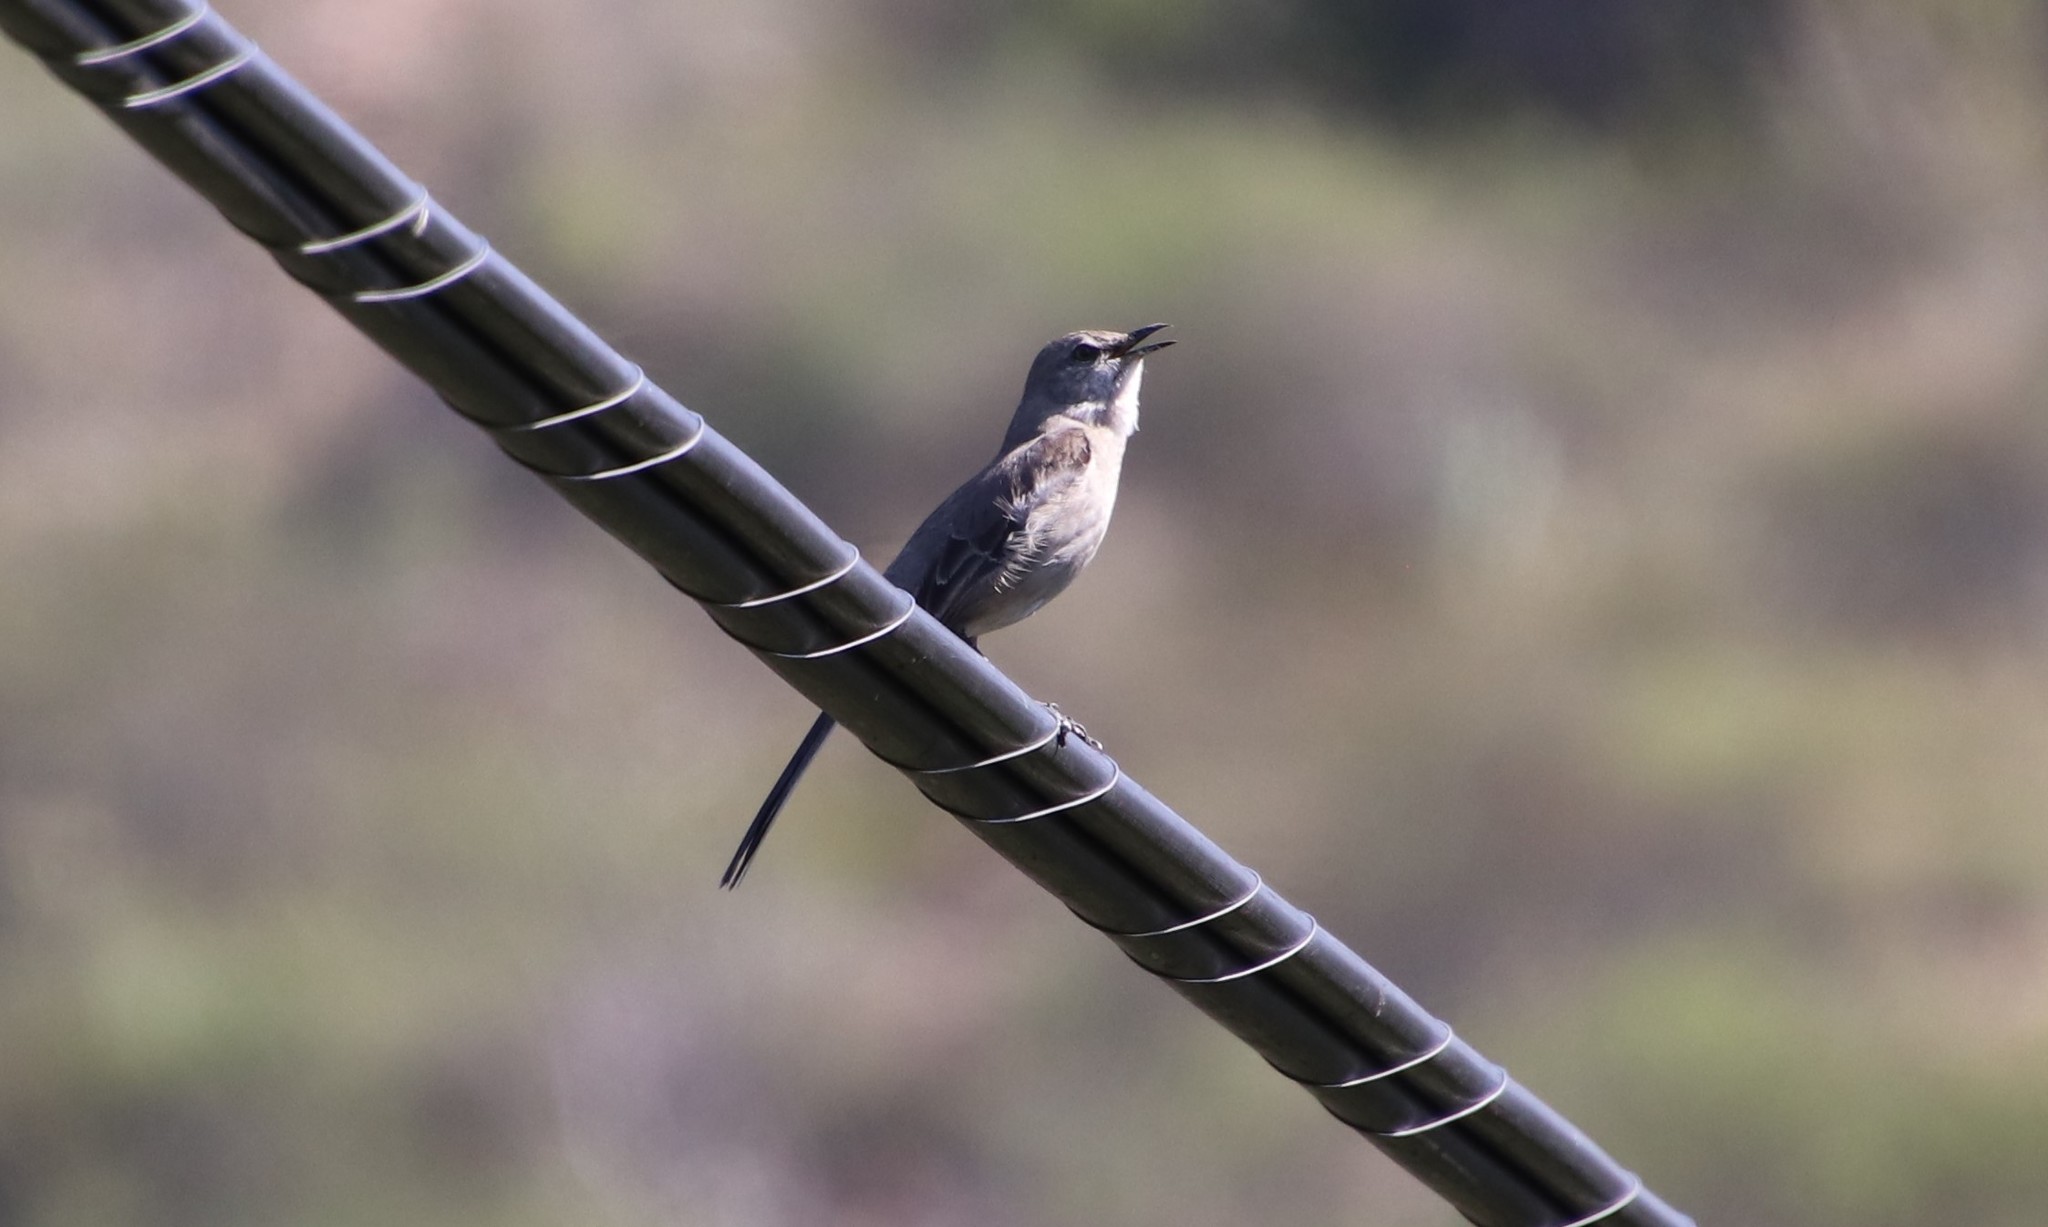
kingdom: Animalia
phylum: Chordata
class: Aves
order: Passeriformes
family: Mimidae
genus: Mimus
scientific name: Mimus polyglottos
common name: Northern mockingbird
